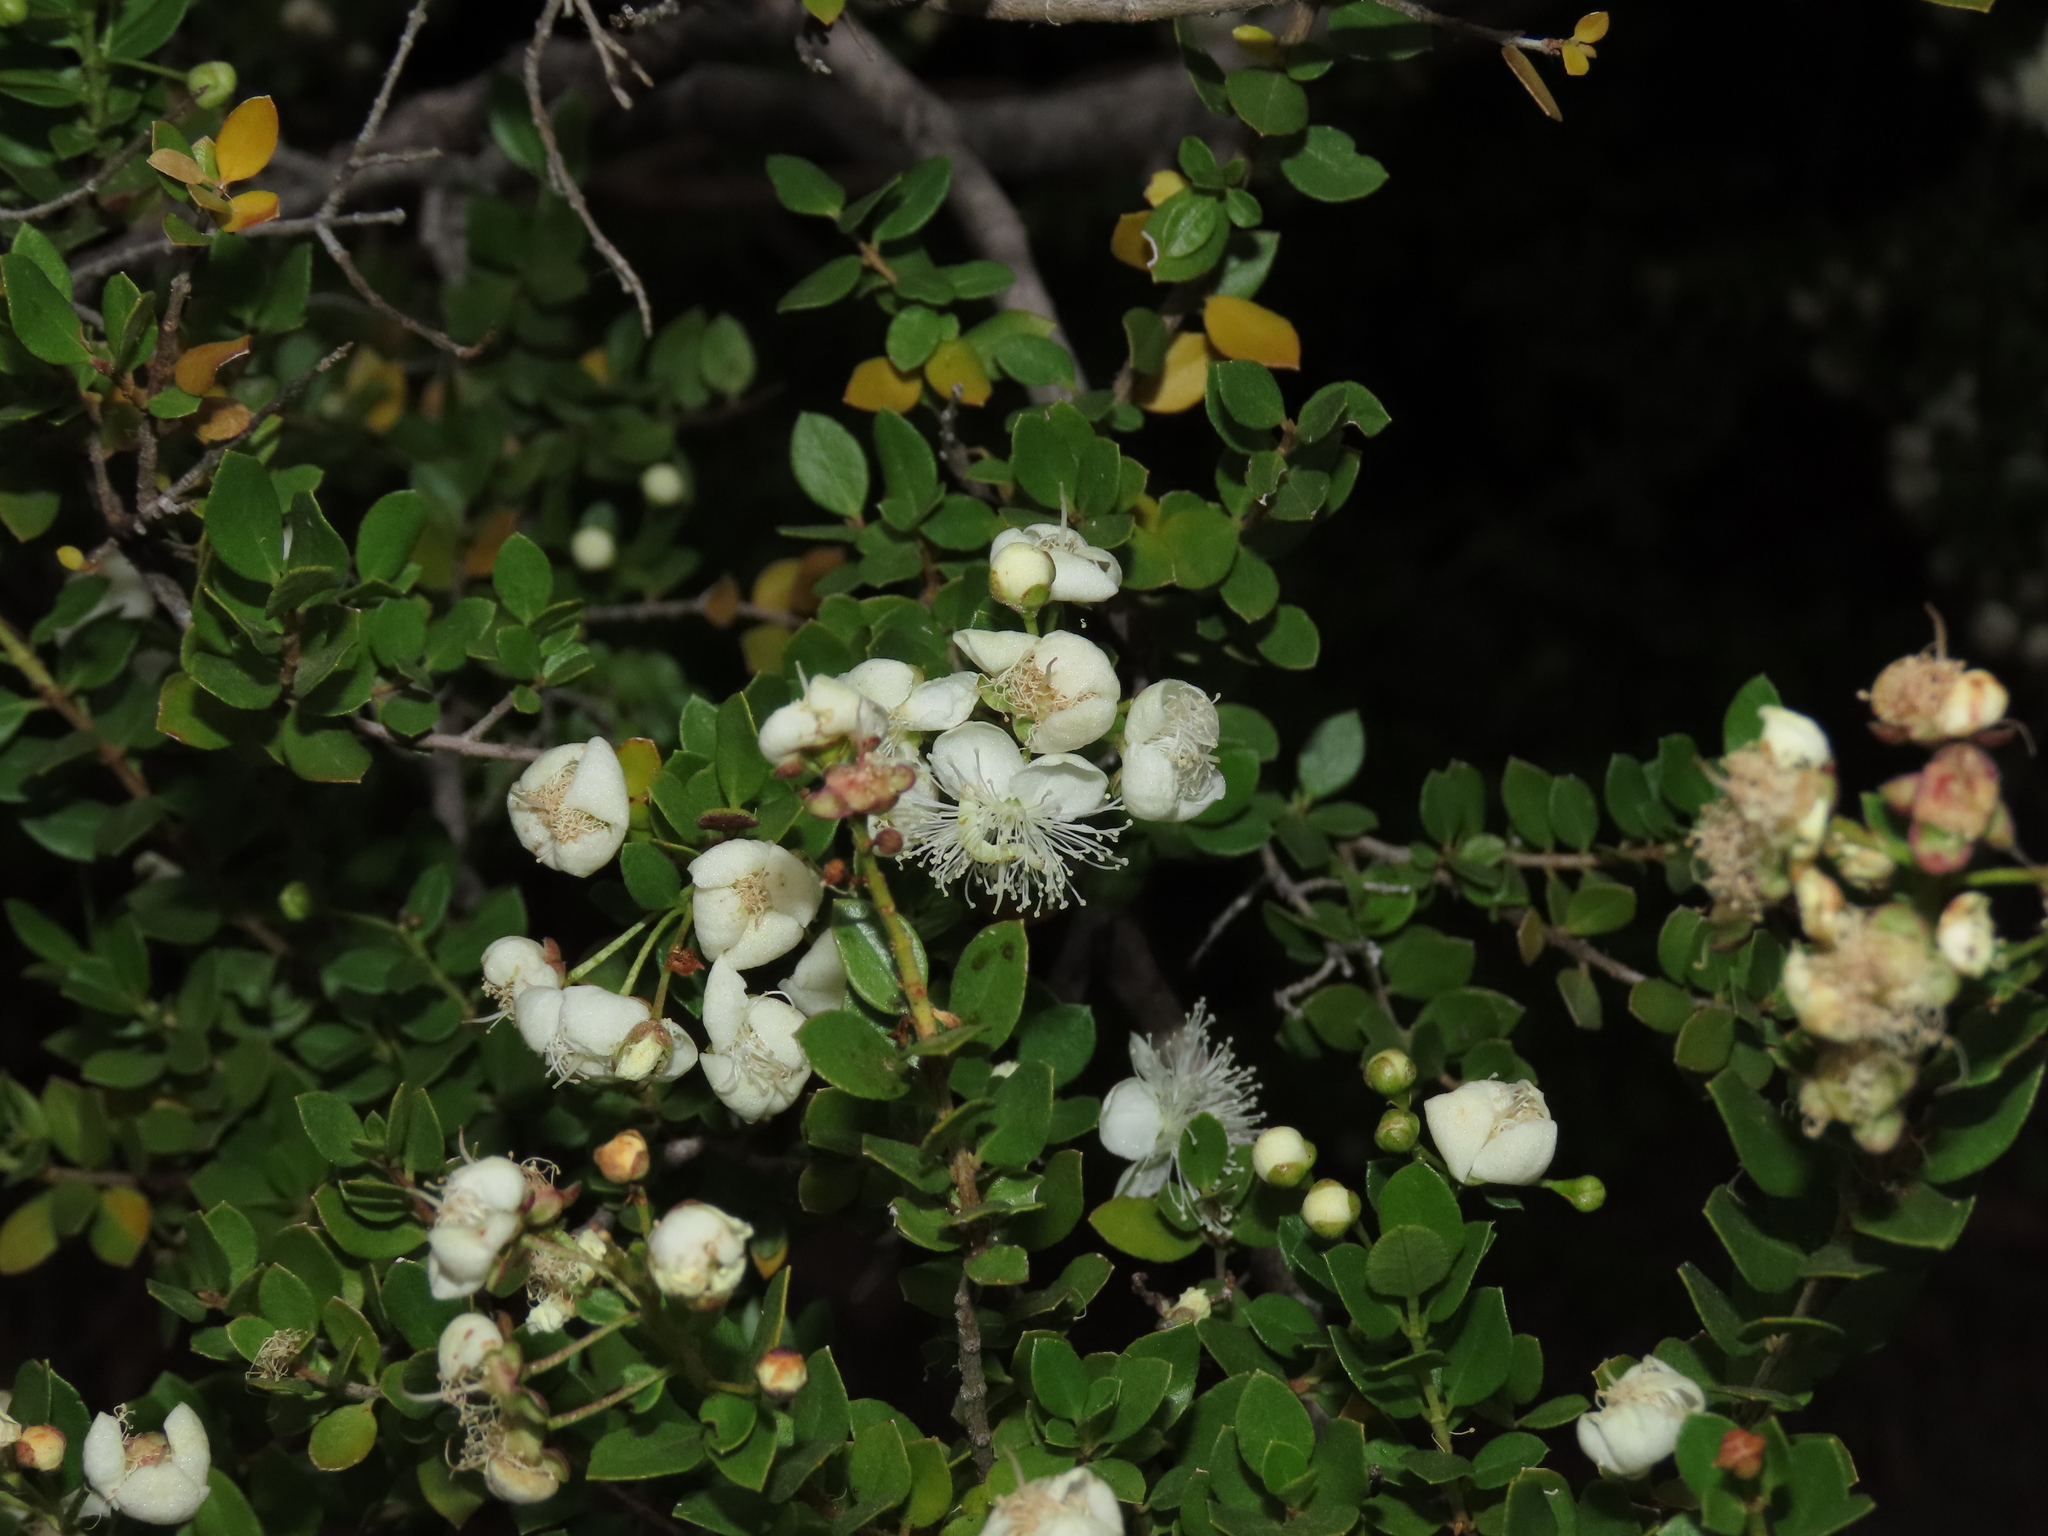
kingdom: Plantae
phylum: Tracheophyta
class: Magnoliopsida
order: Myrtales
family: Myrtaceae
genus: Luma
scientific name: Luma chequen
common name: Cheken
